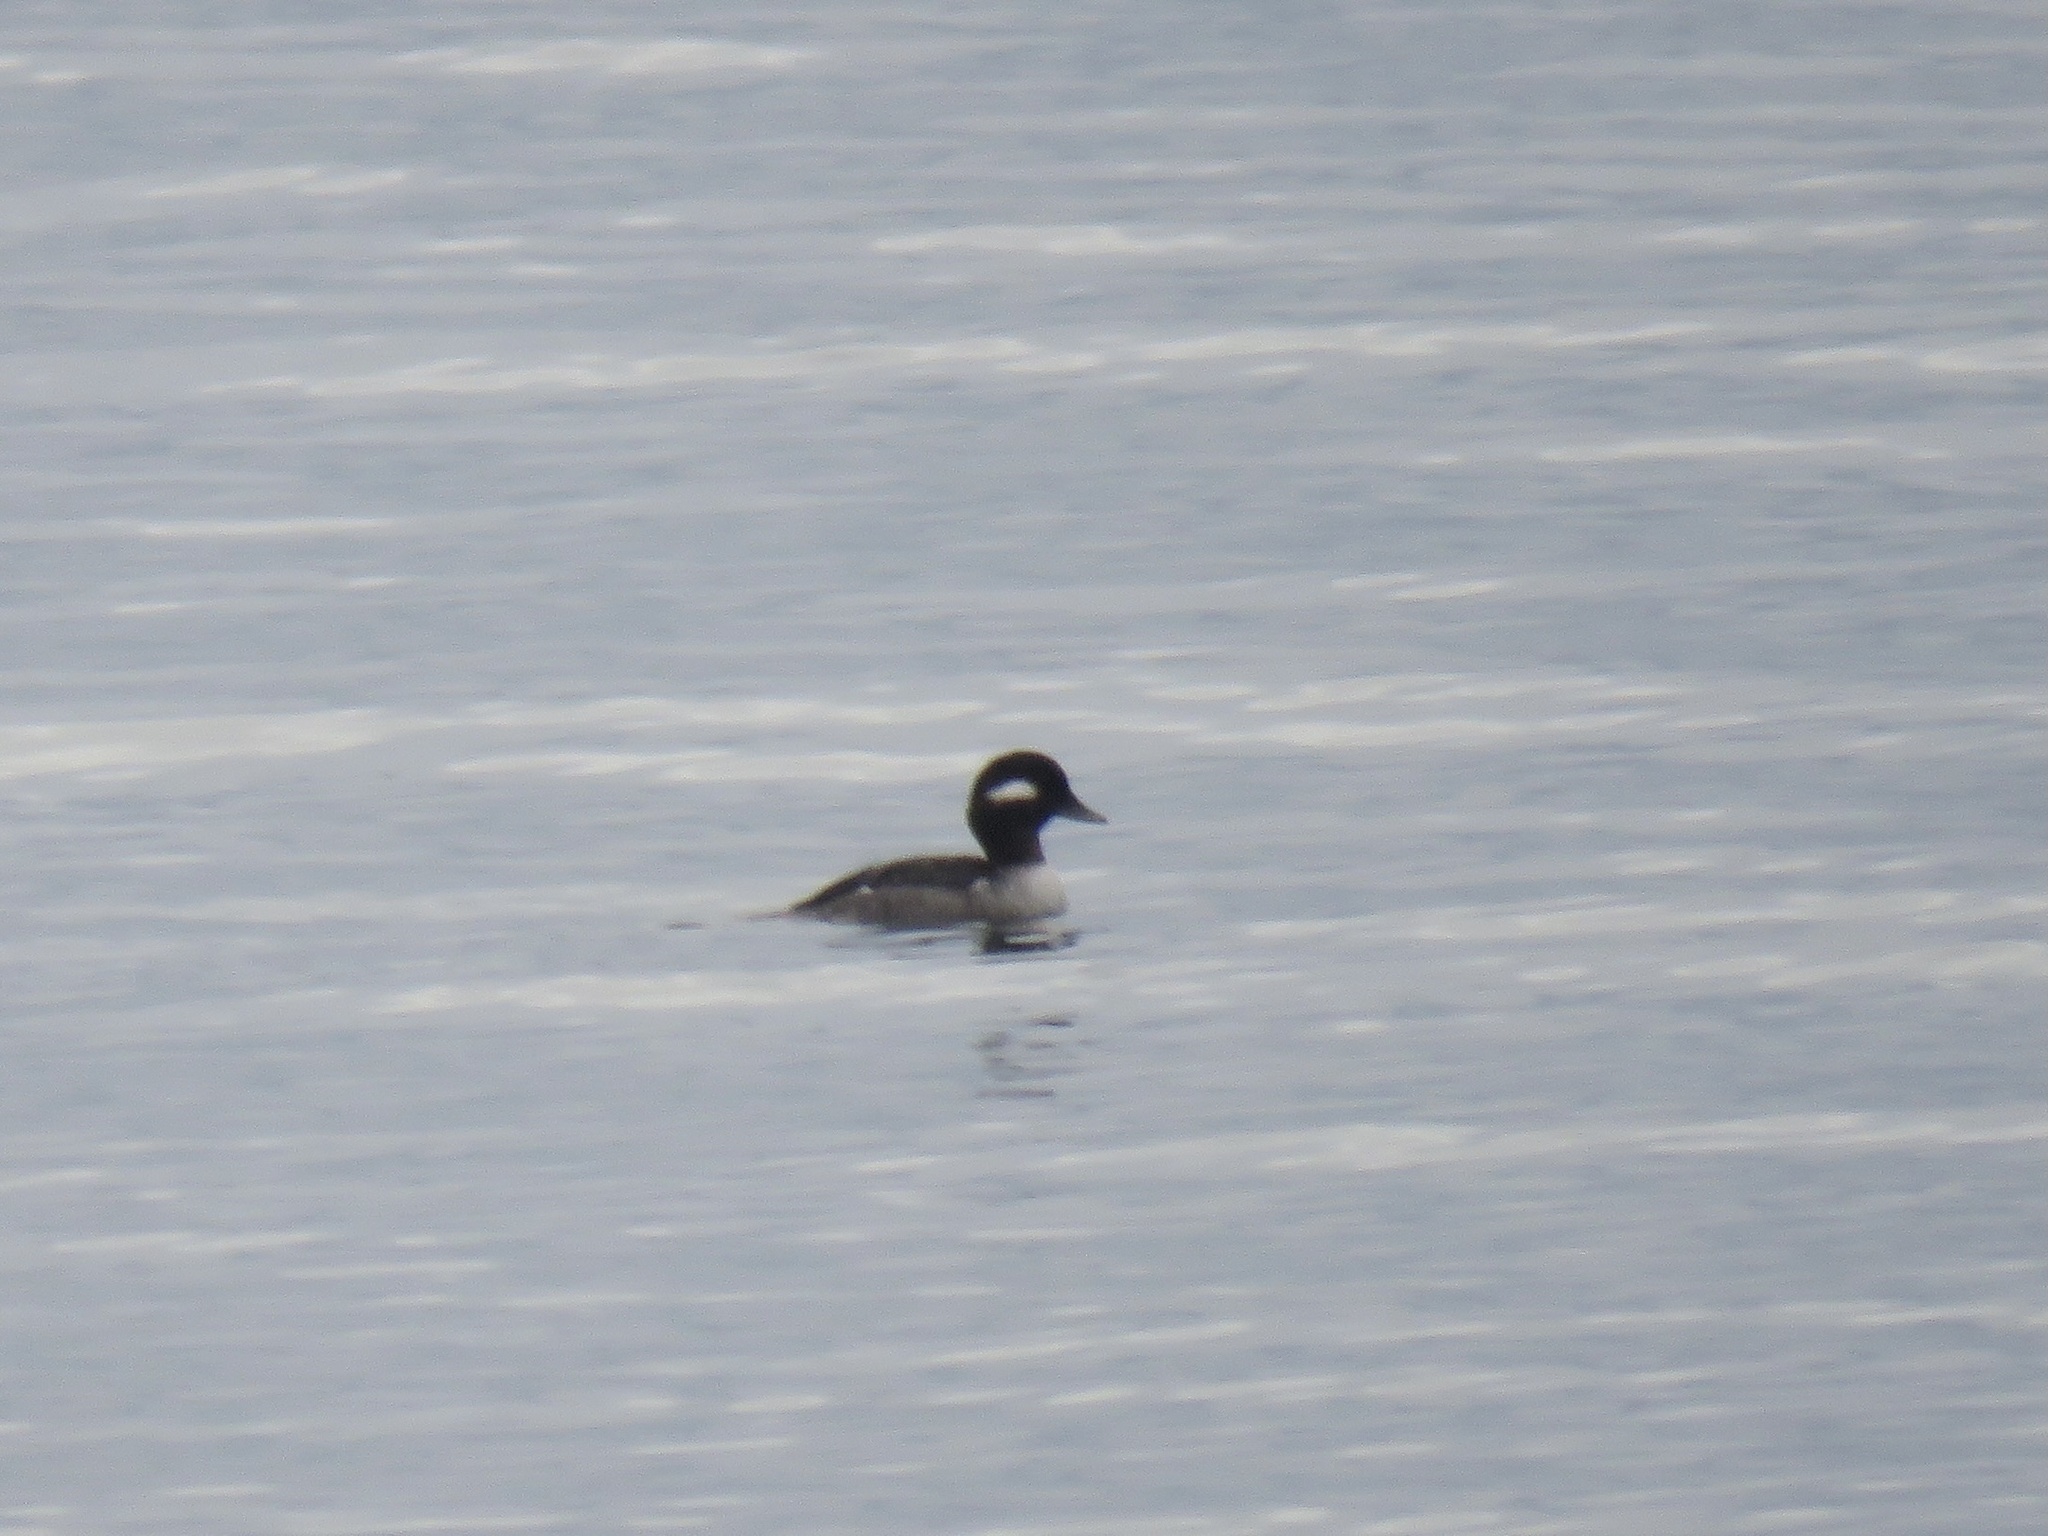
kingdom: Animalia
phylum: Chordata
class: Aves
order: Anseriformes
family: Anatidae
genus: Bucephala
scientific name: Bucephala albeola
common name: Bufflehead
